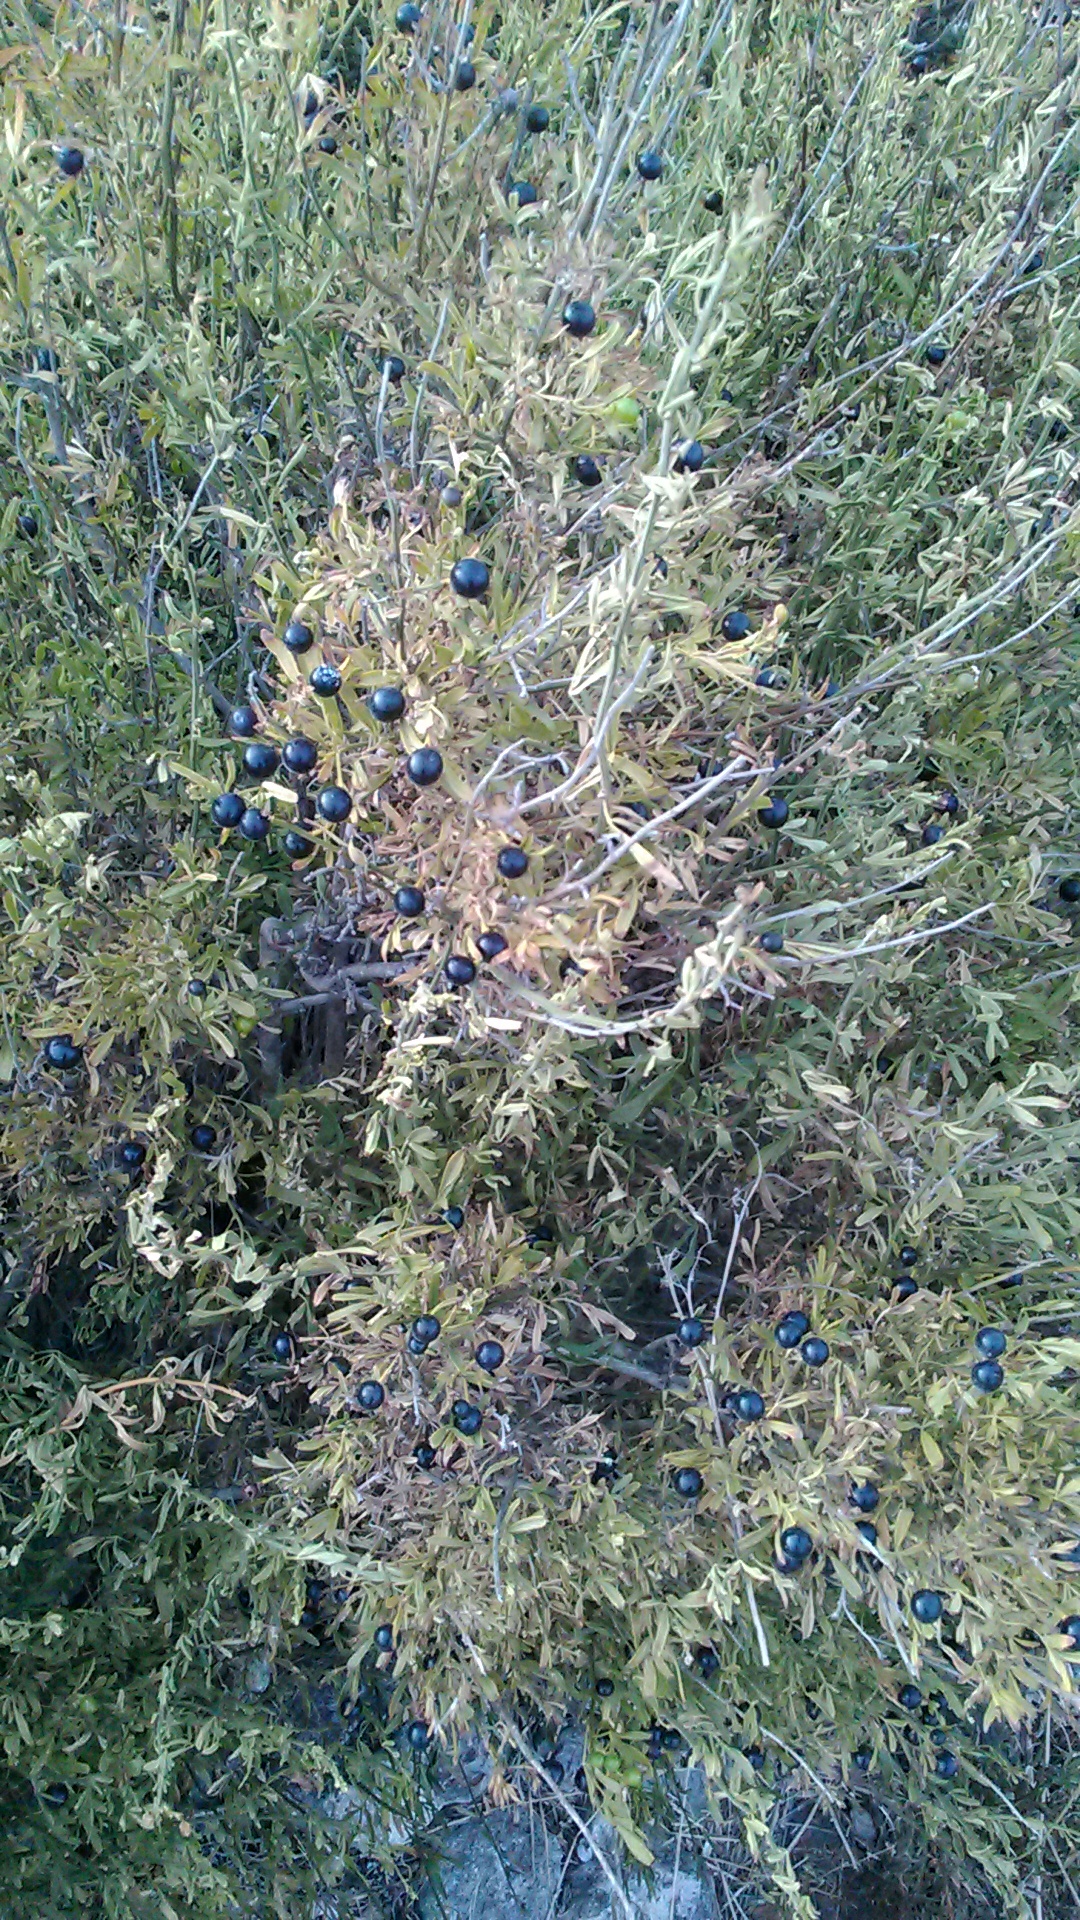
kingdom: Plantae
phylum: Tracheophyta
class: Magnoliopsida
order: Lamiales
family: Oleaceae
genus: Chrysojasminum
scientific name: Chrysojasminum fruticans
